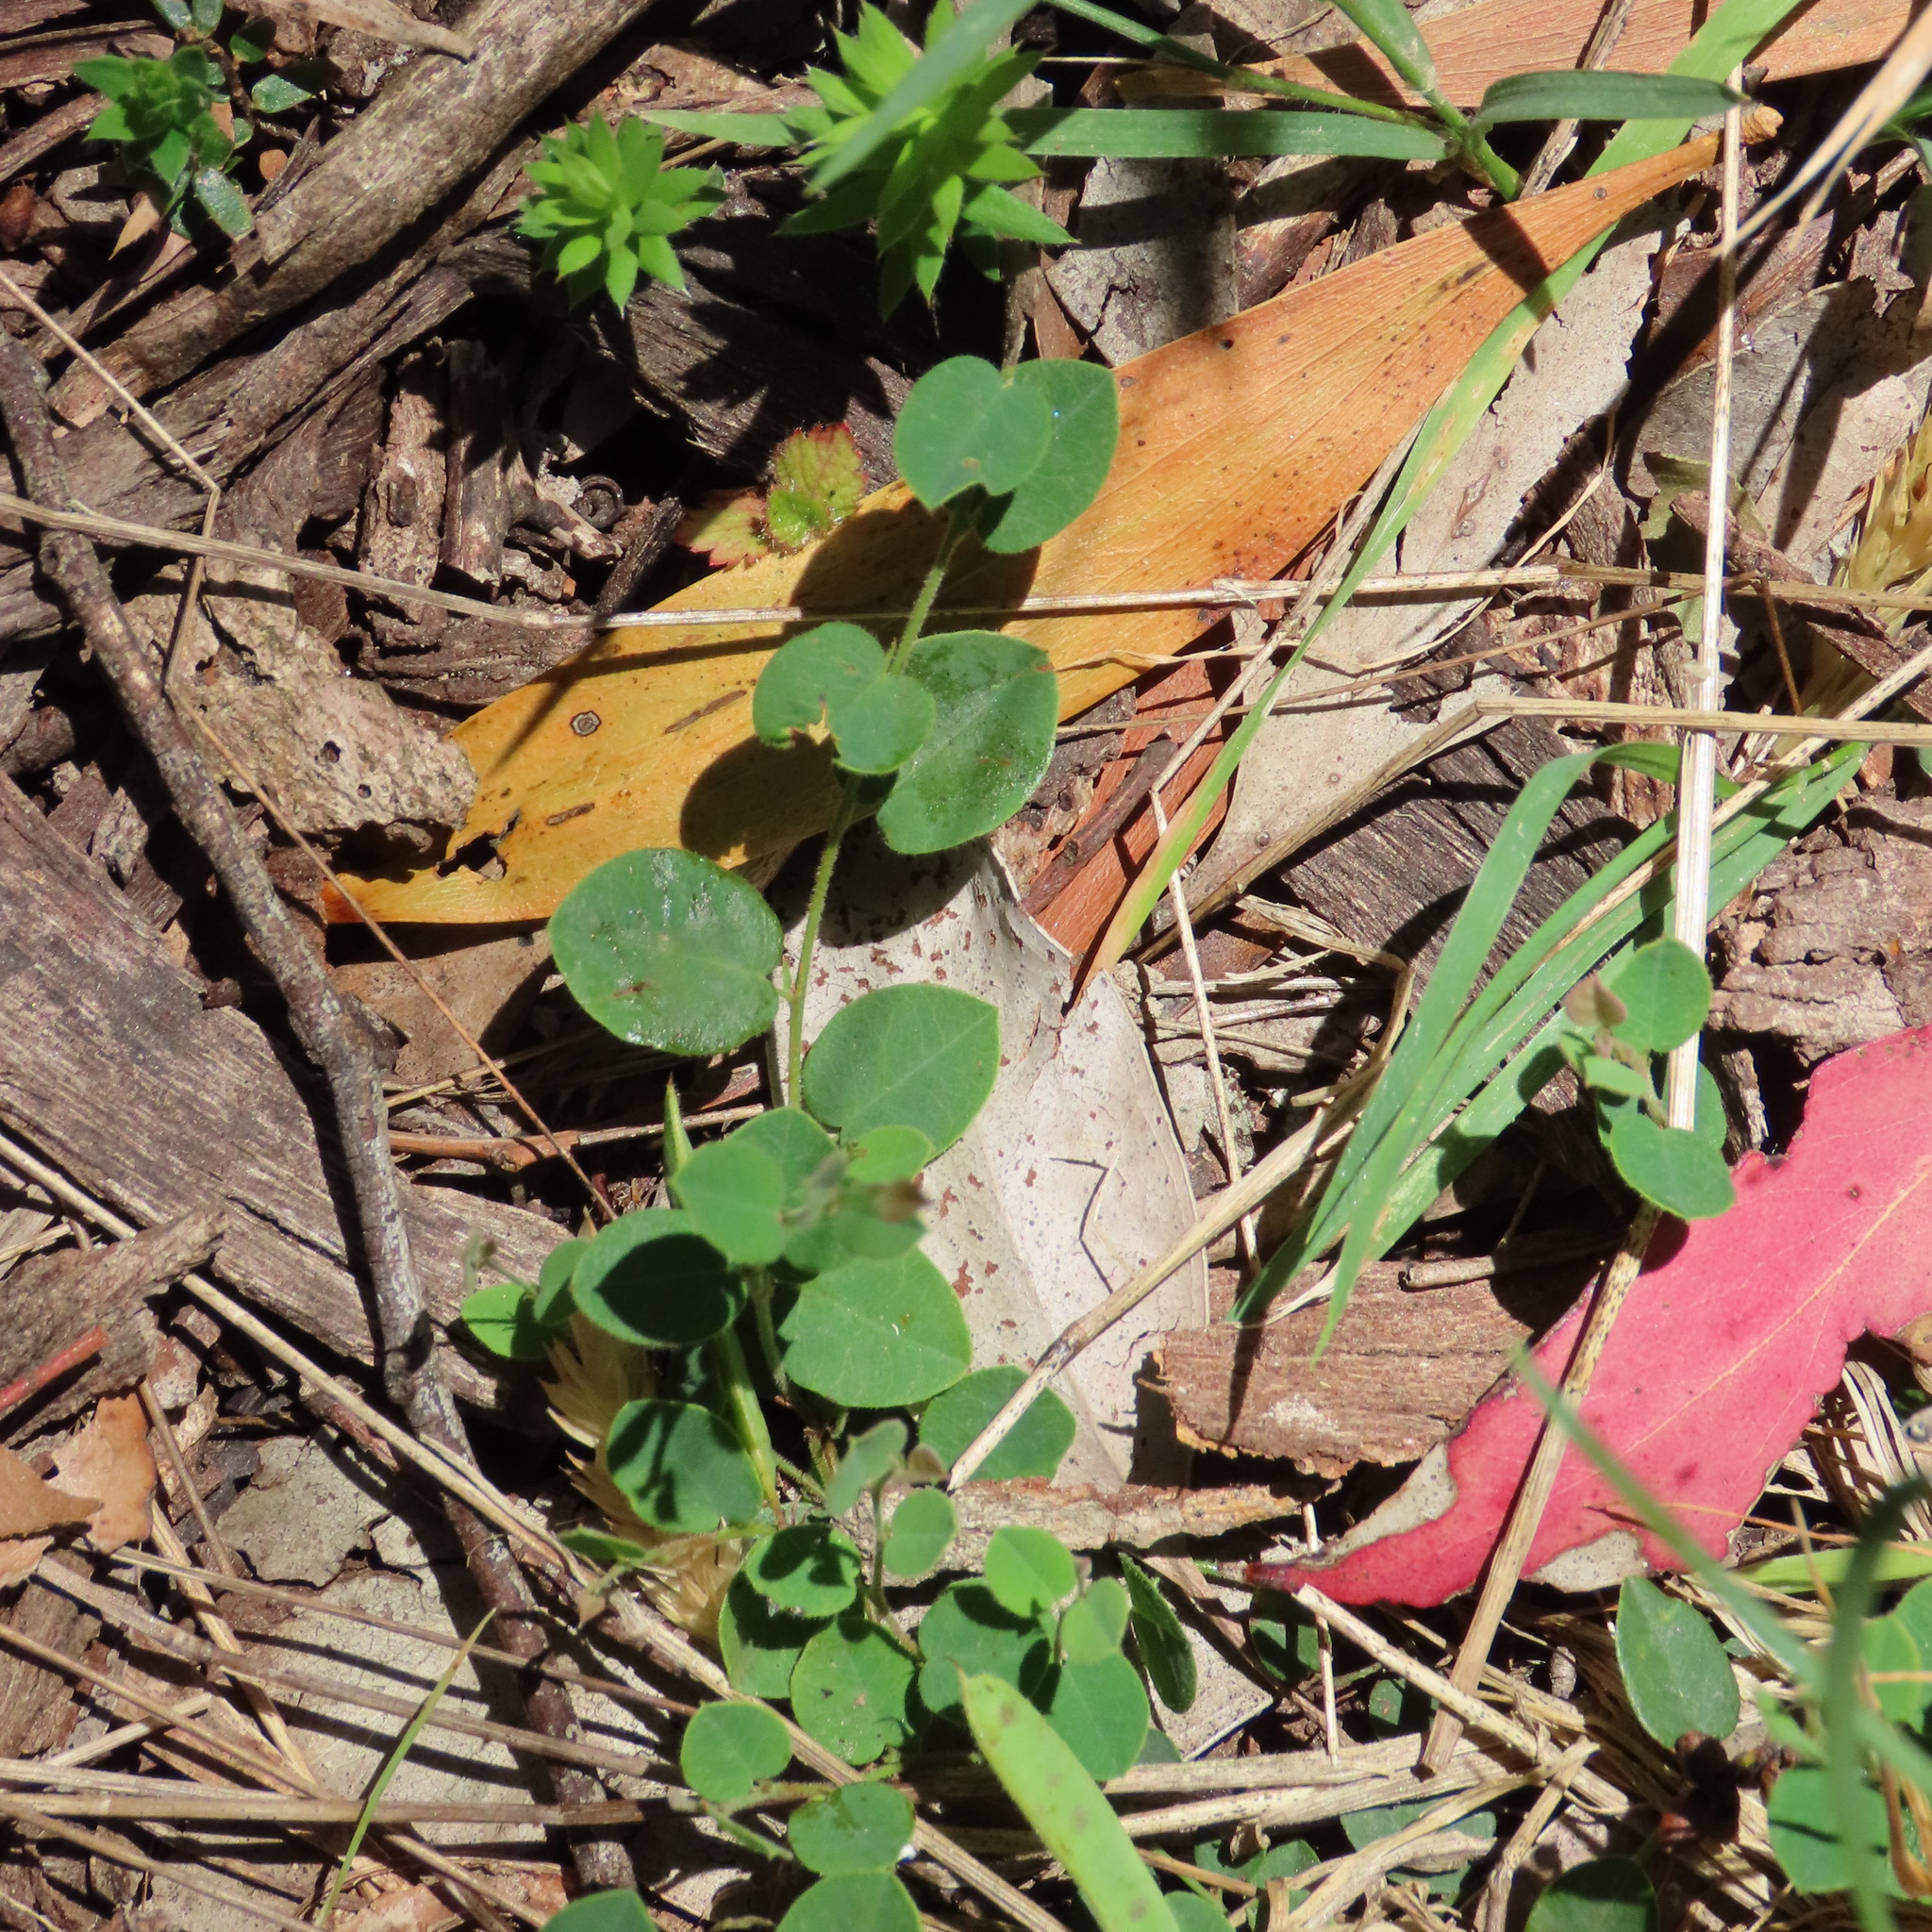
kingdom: Plantae
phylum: Tracheophyta
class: Magnoliopsida
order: Fabales
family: Fabaceae
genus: Bossiaea
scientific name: Bossiaea prostrata
